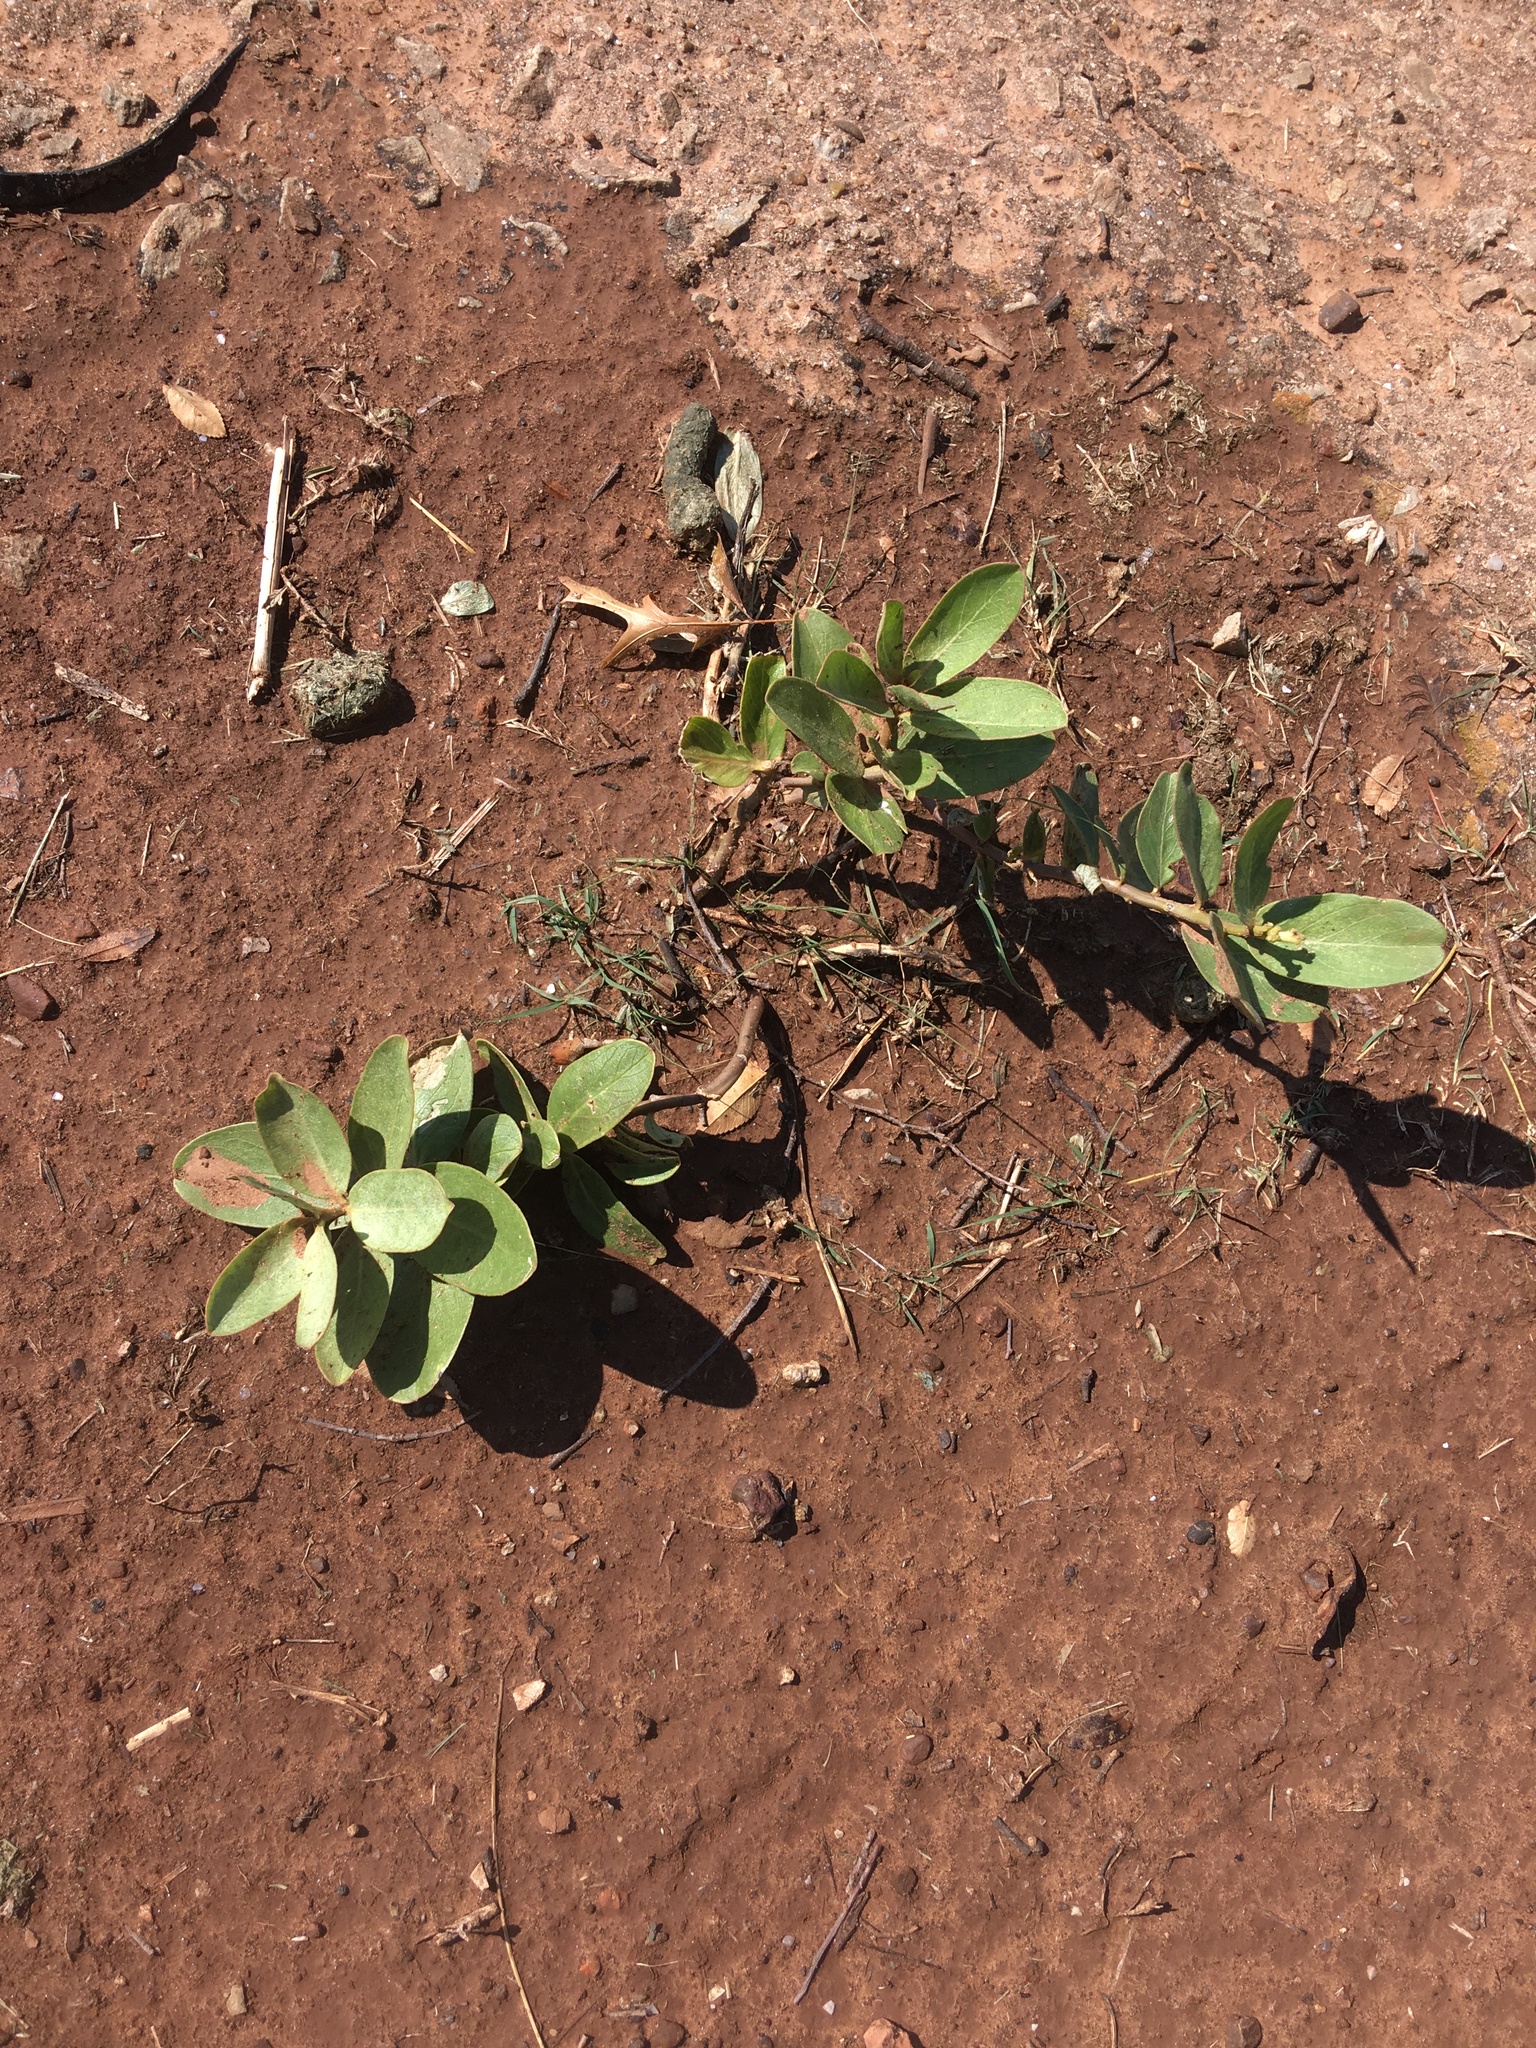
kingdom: Plantae
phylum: Tracheophyta
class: Magnoliopsida
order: Gentianales
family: Apocynaceae
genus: Asclepias
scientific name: Asclepias viridis
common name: Antelope-horns
